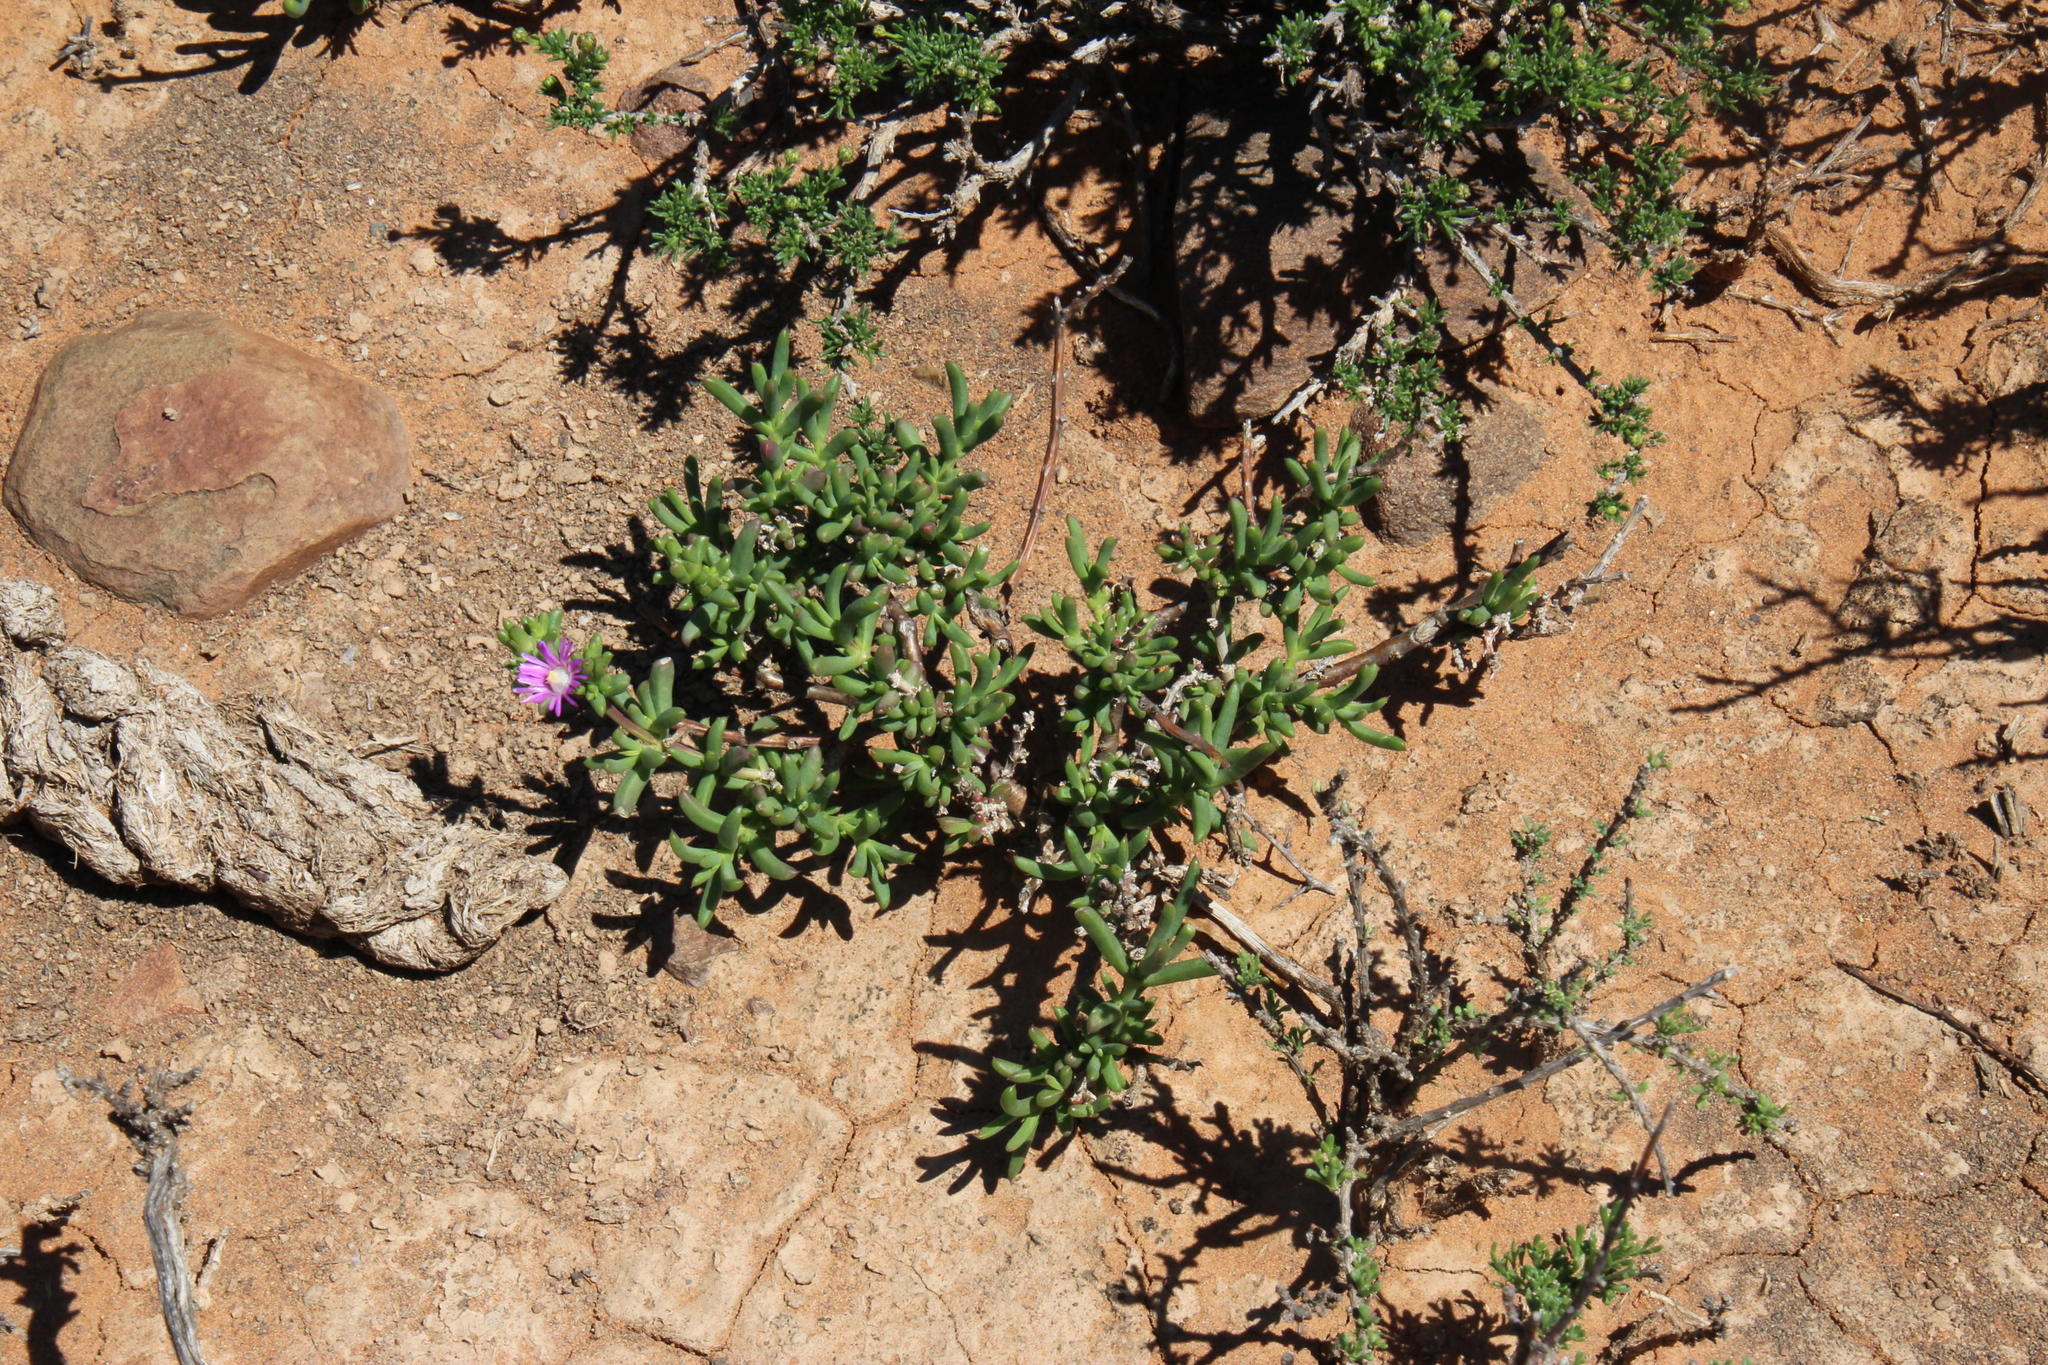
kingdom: Plantae
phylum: Tracheophyta
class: Magnoliopsida
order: Caryophyllales
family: Aizoaceae
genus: Delosperma
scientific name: Delosperma peersii
